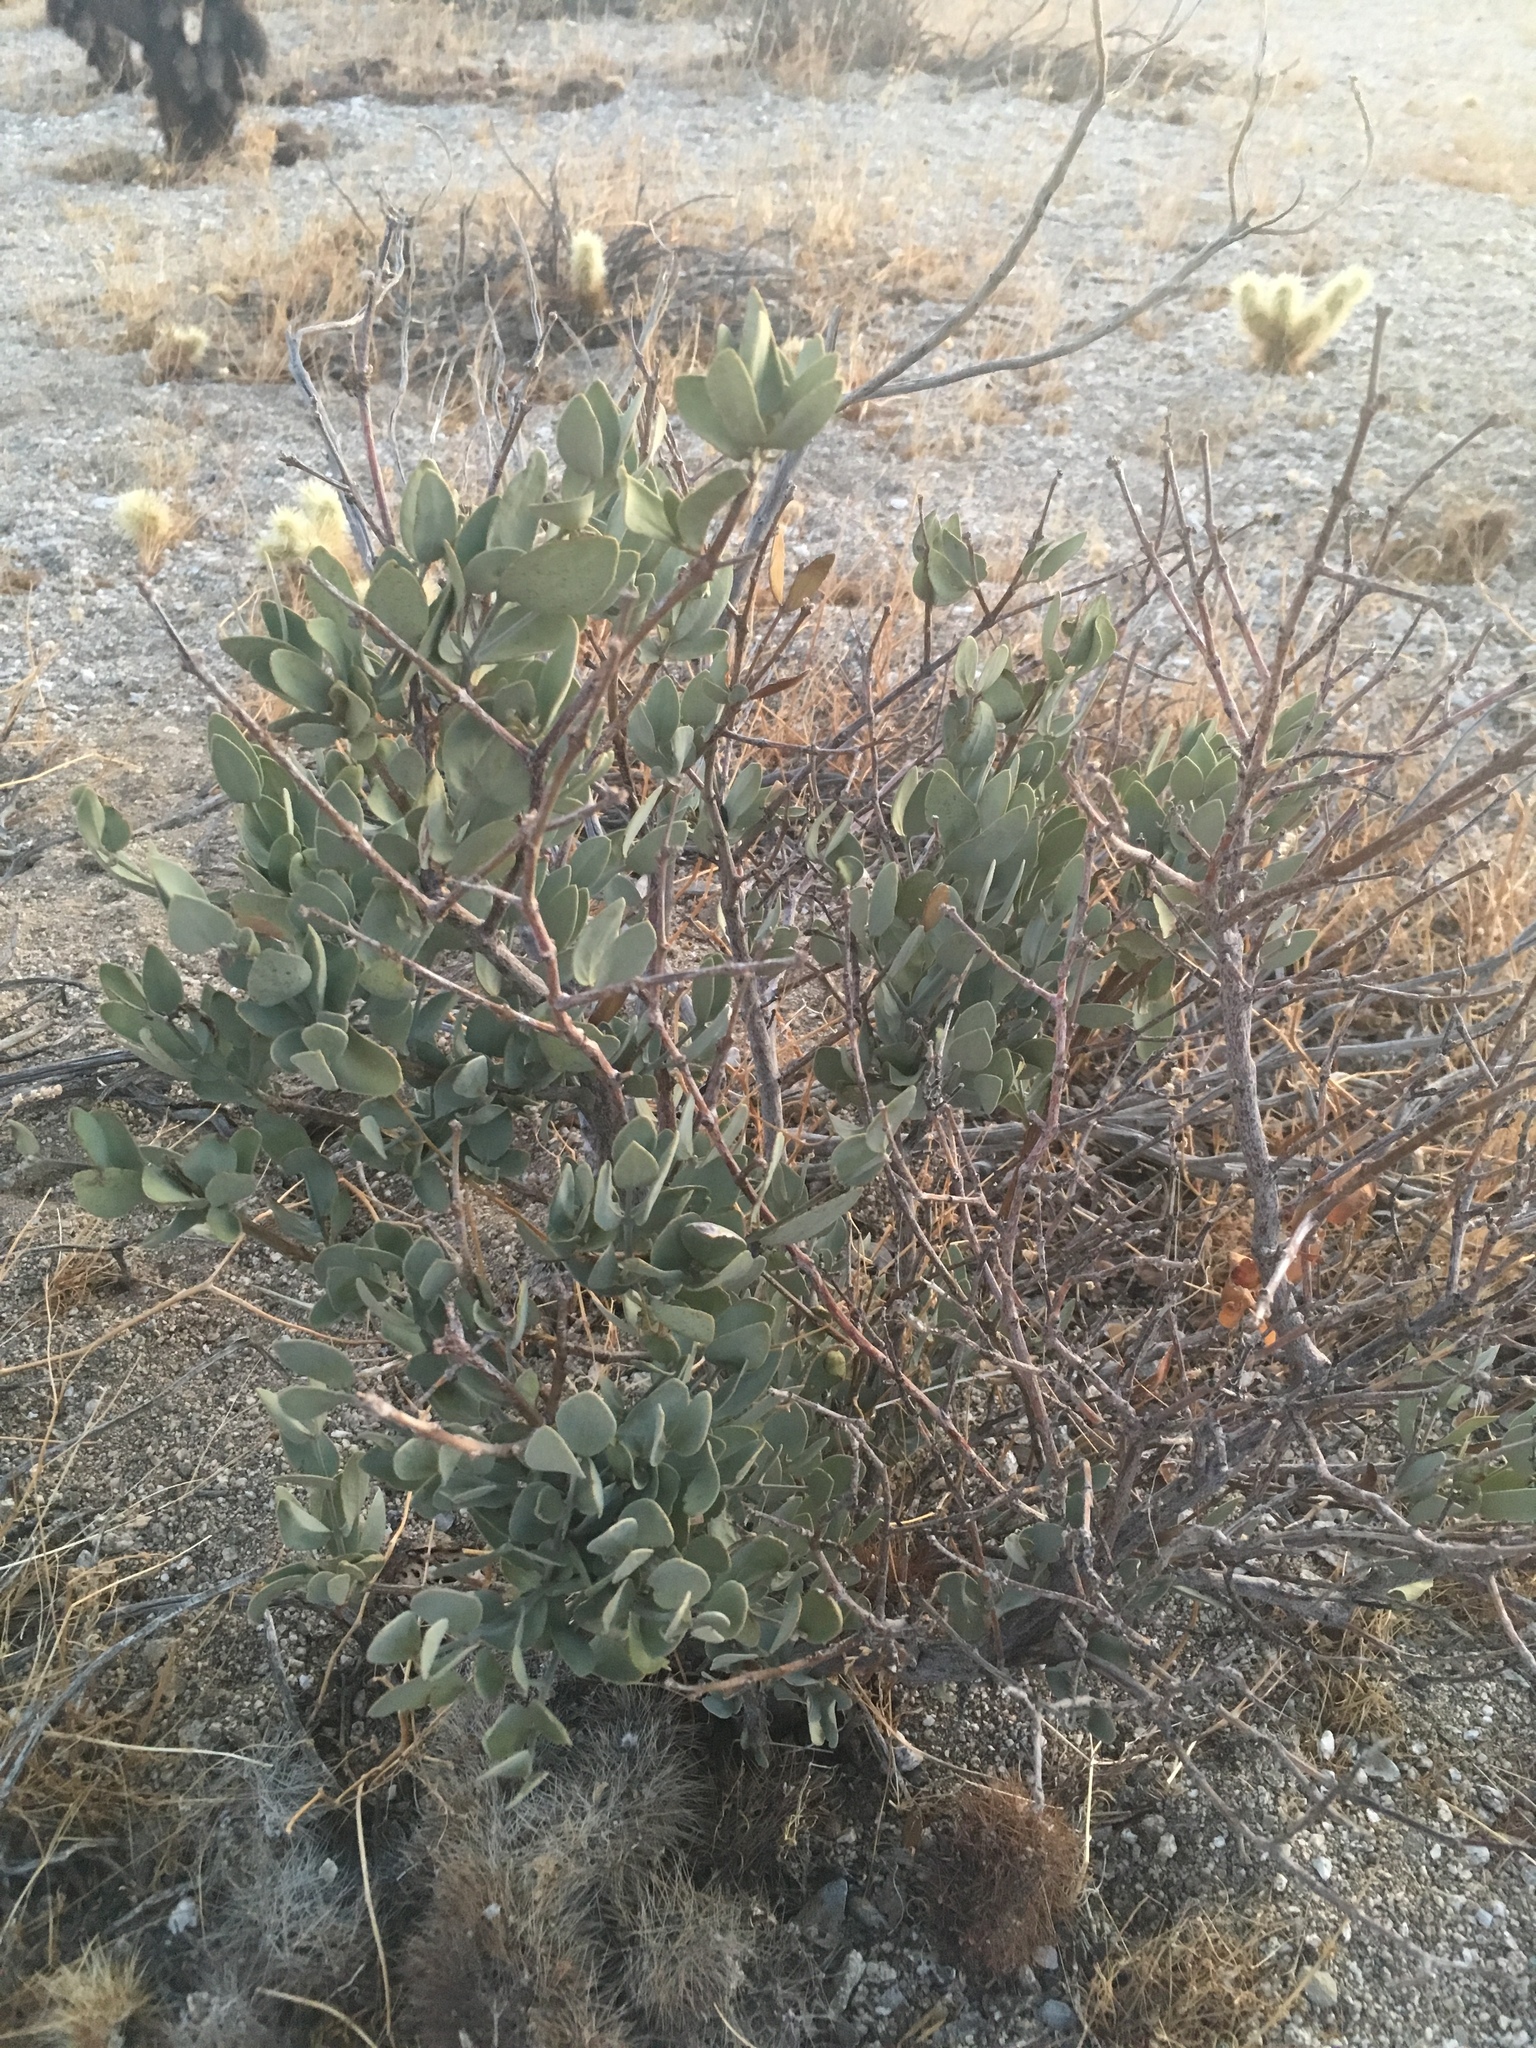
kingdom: Plantae
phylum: Tracheophyta
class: Magnoliopsida
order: Caryophyllales
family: Simmondsiaceae
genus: Simmondsia
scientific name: Simmondsia chinensis
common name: Jojoba
